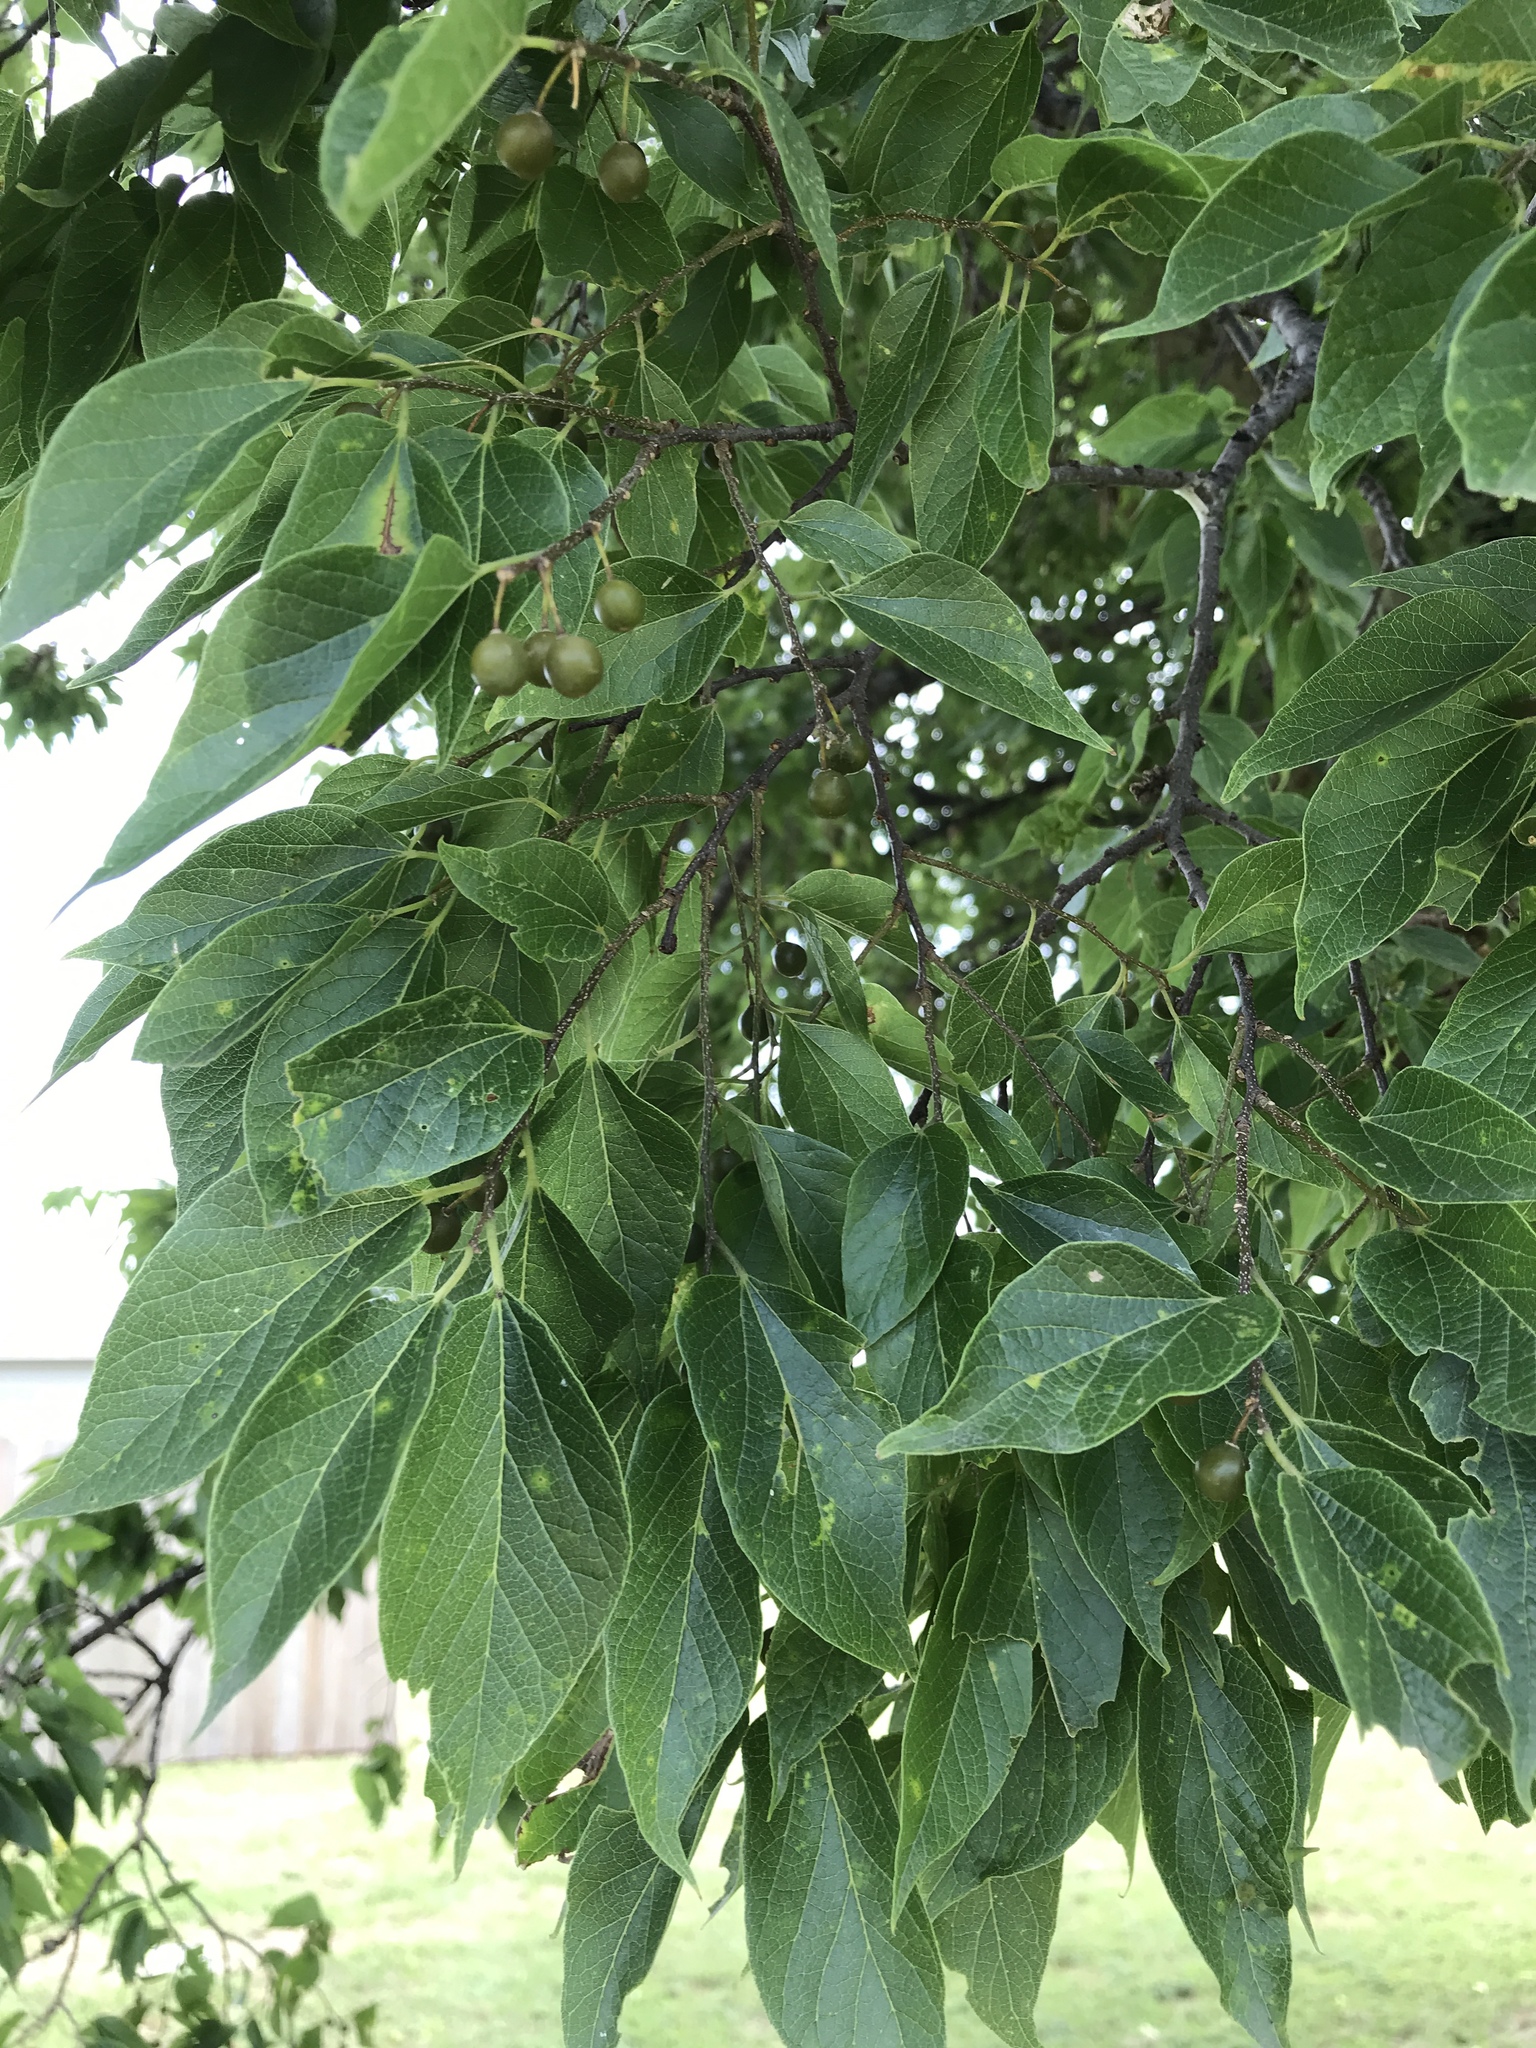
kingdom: Plantae
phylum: Tracheophyta
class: Magnoliopsida
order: Rosales
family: Cannabaceae
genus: Celtis
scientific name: Celtis laevigata
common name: Sugarberry
